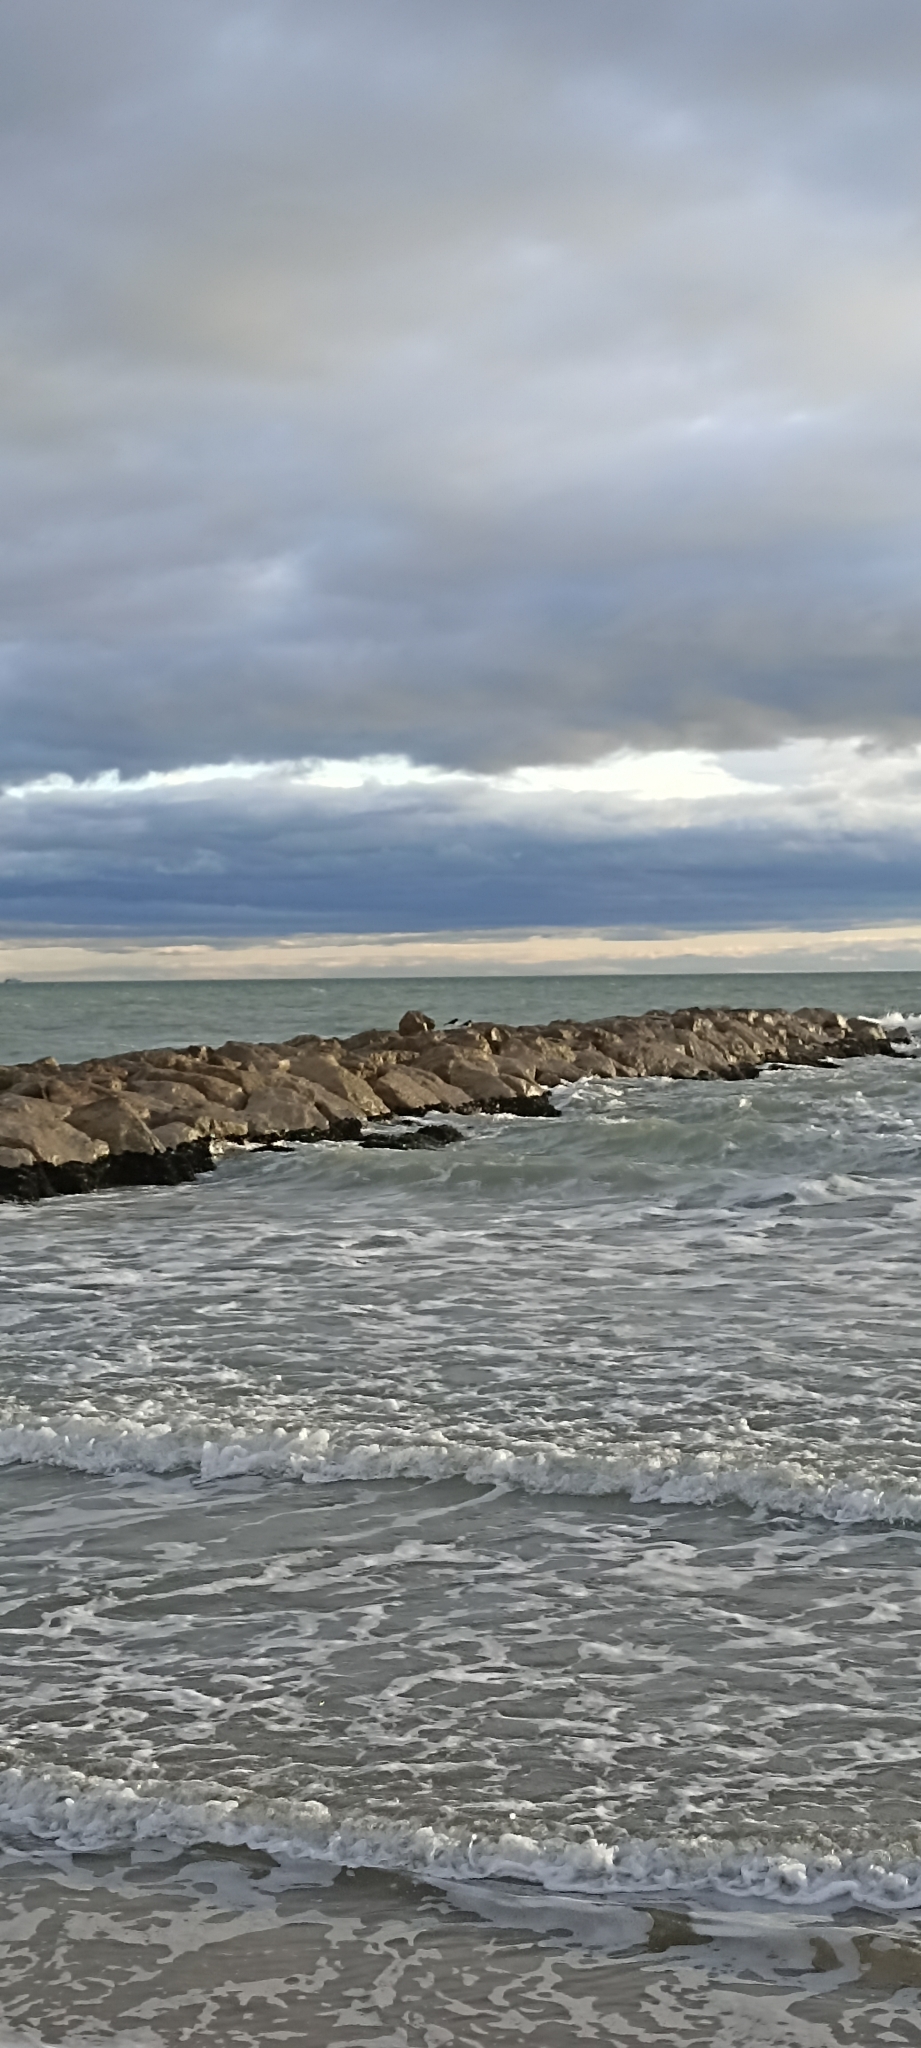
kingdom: Animalia
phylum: Chordata
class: Aves
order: Charadriiformes
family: Haematopodidae
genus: Haematopus
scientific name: Haematopus ostralegus
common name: Eurasian oystercatcher
